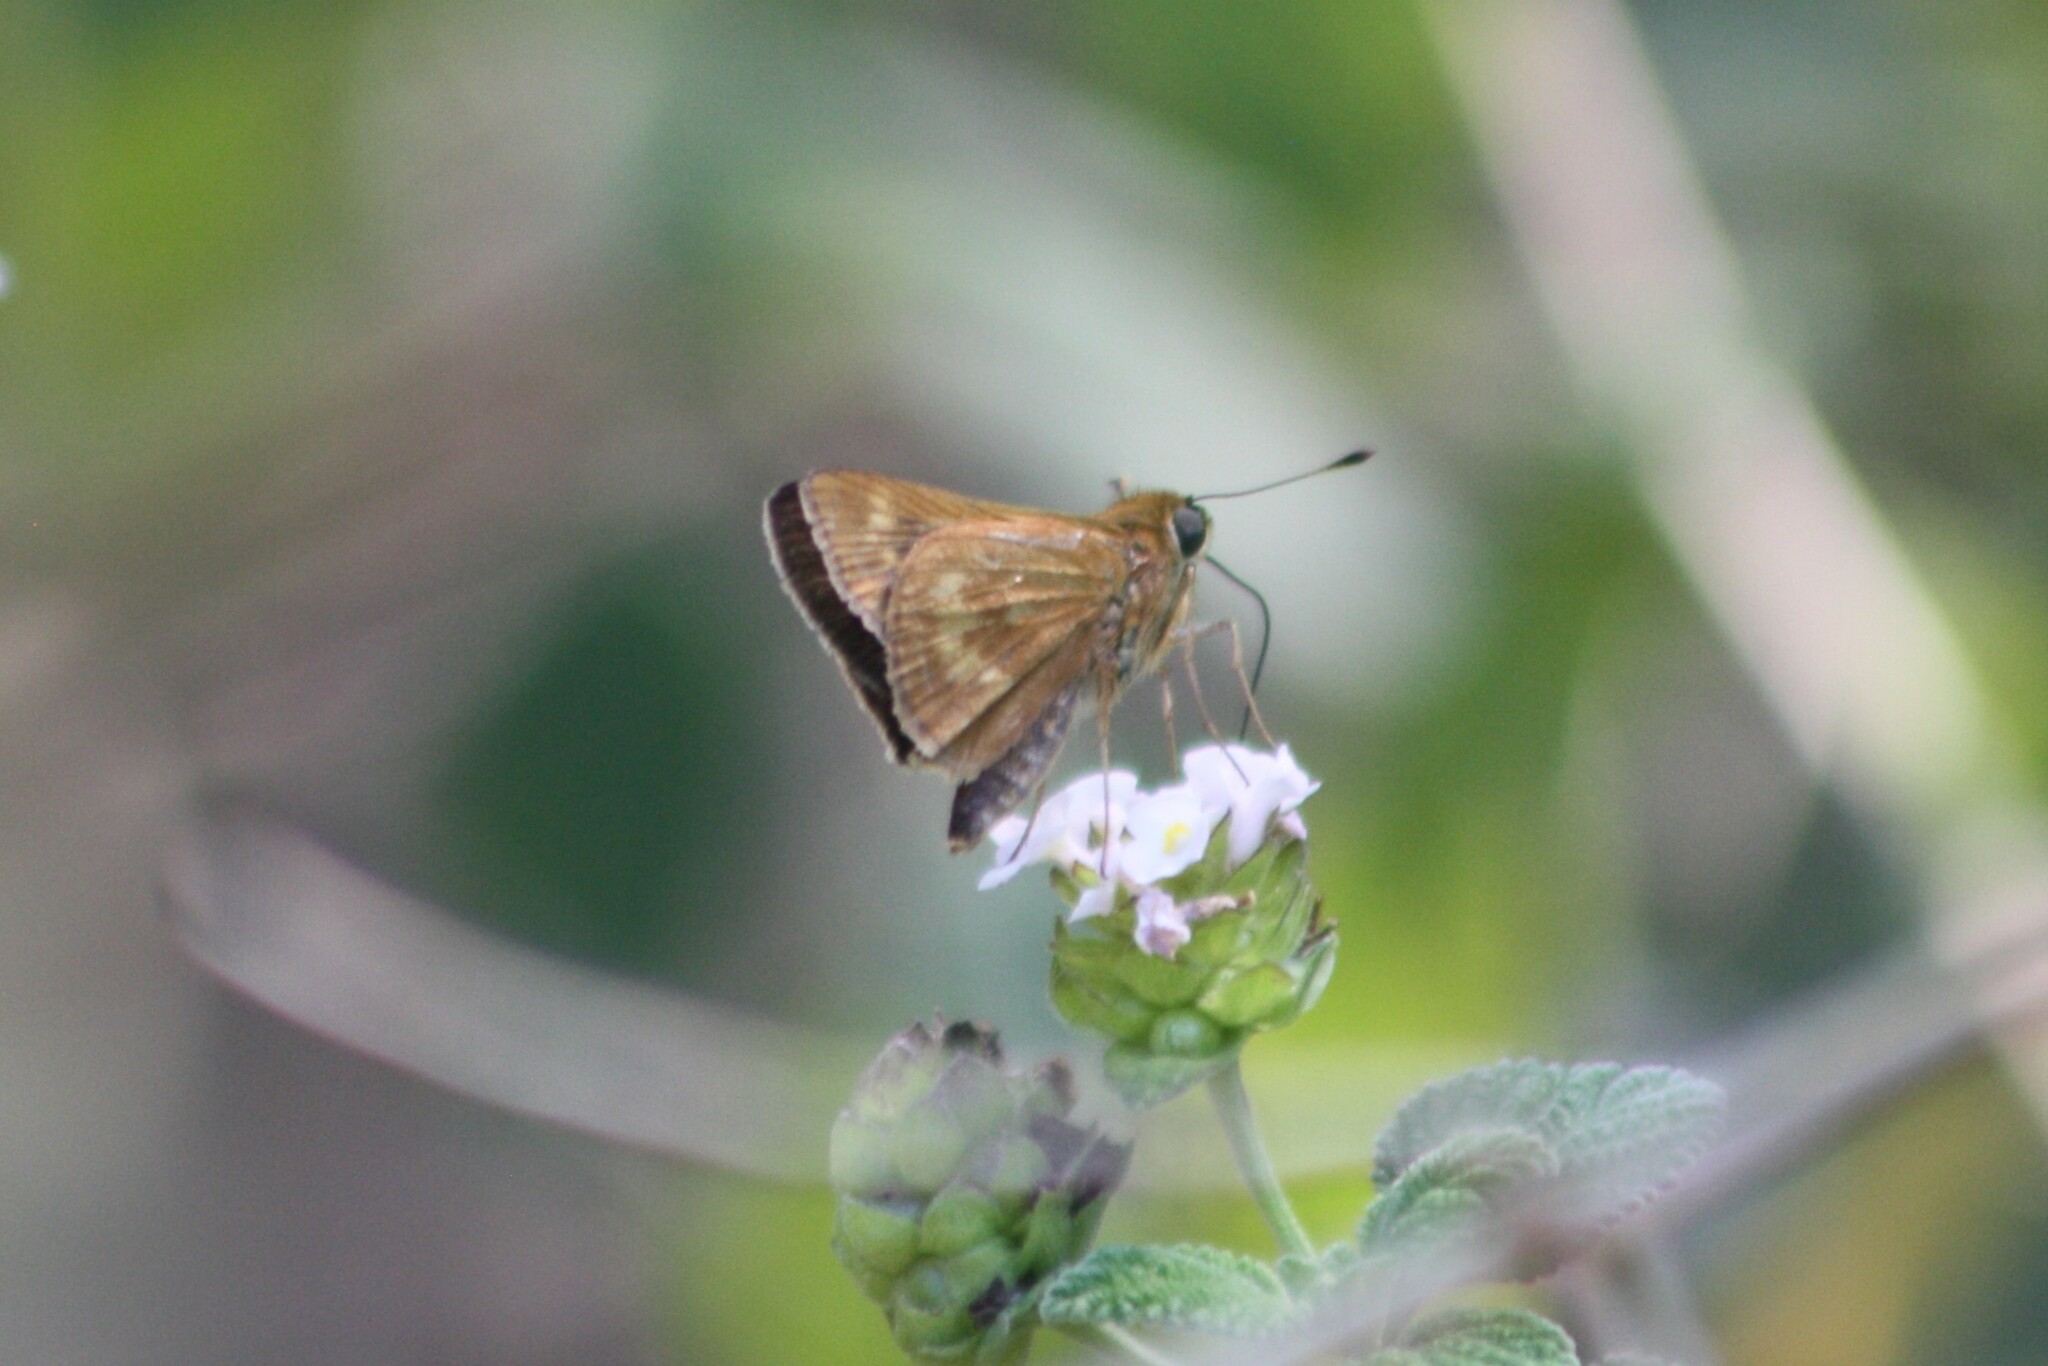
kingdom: Animalia
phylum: Arthropoda
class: Insecta
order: Lepidoptera
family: Hesperiidae
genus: Polites
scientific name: Polites otho
